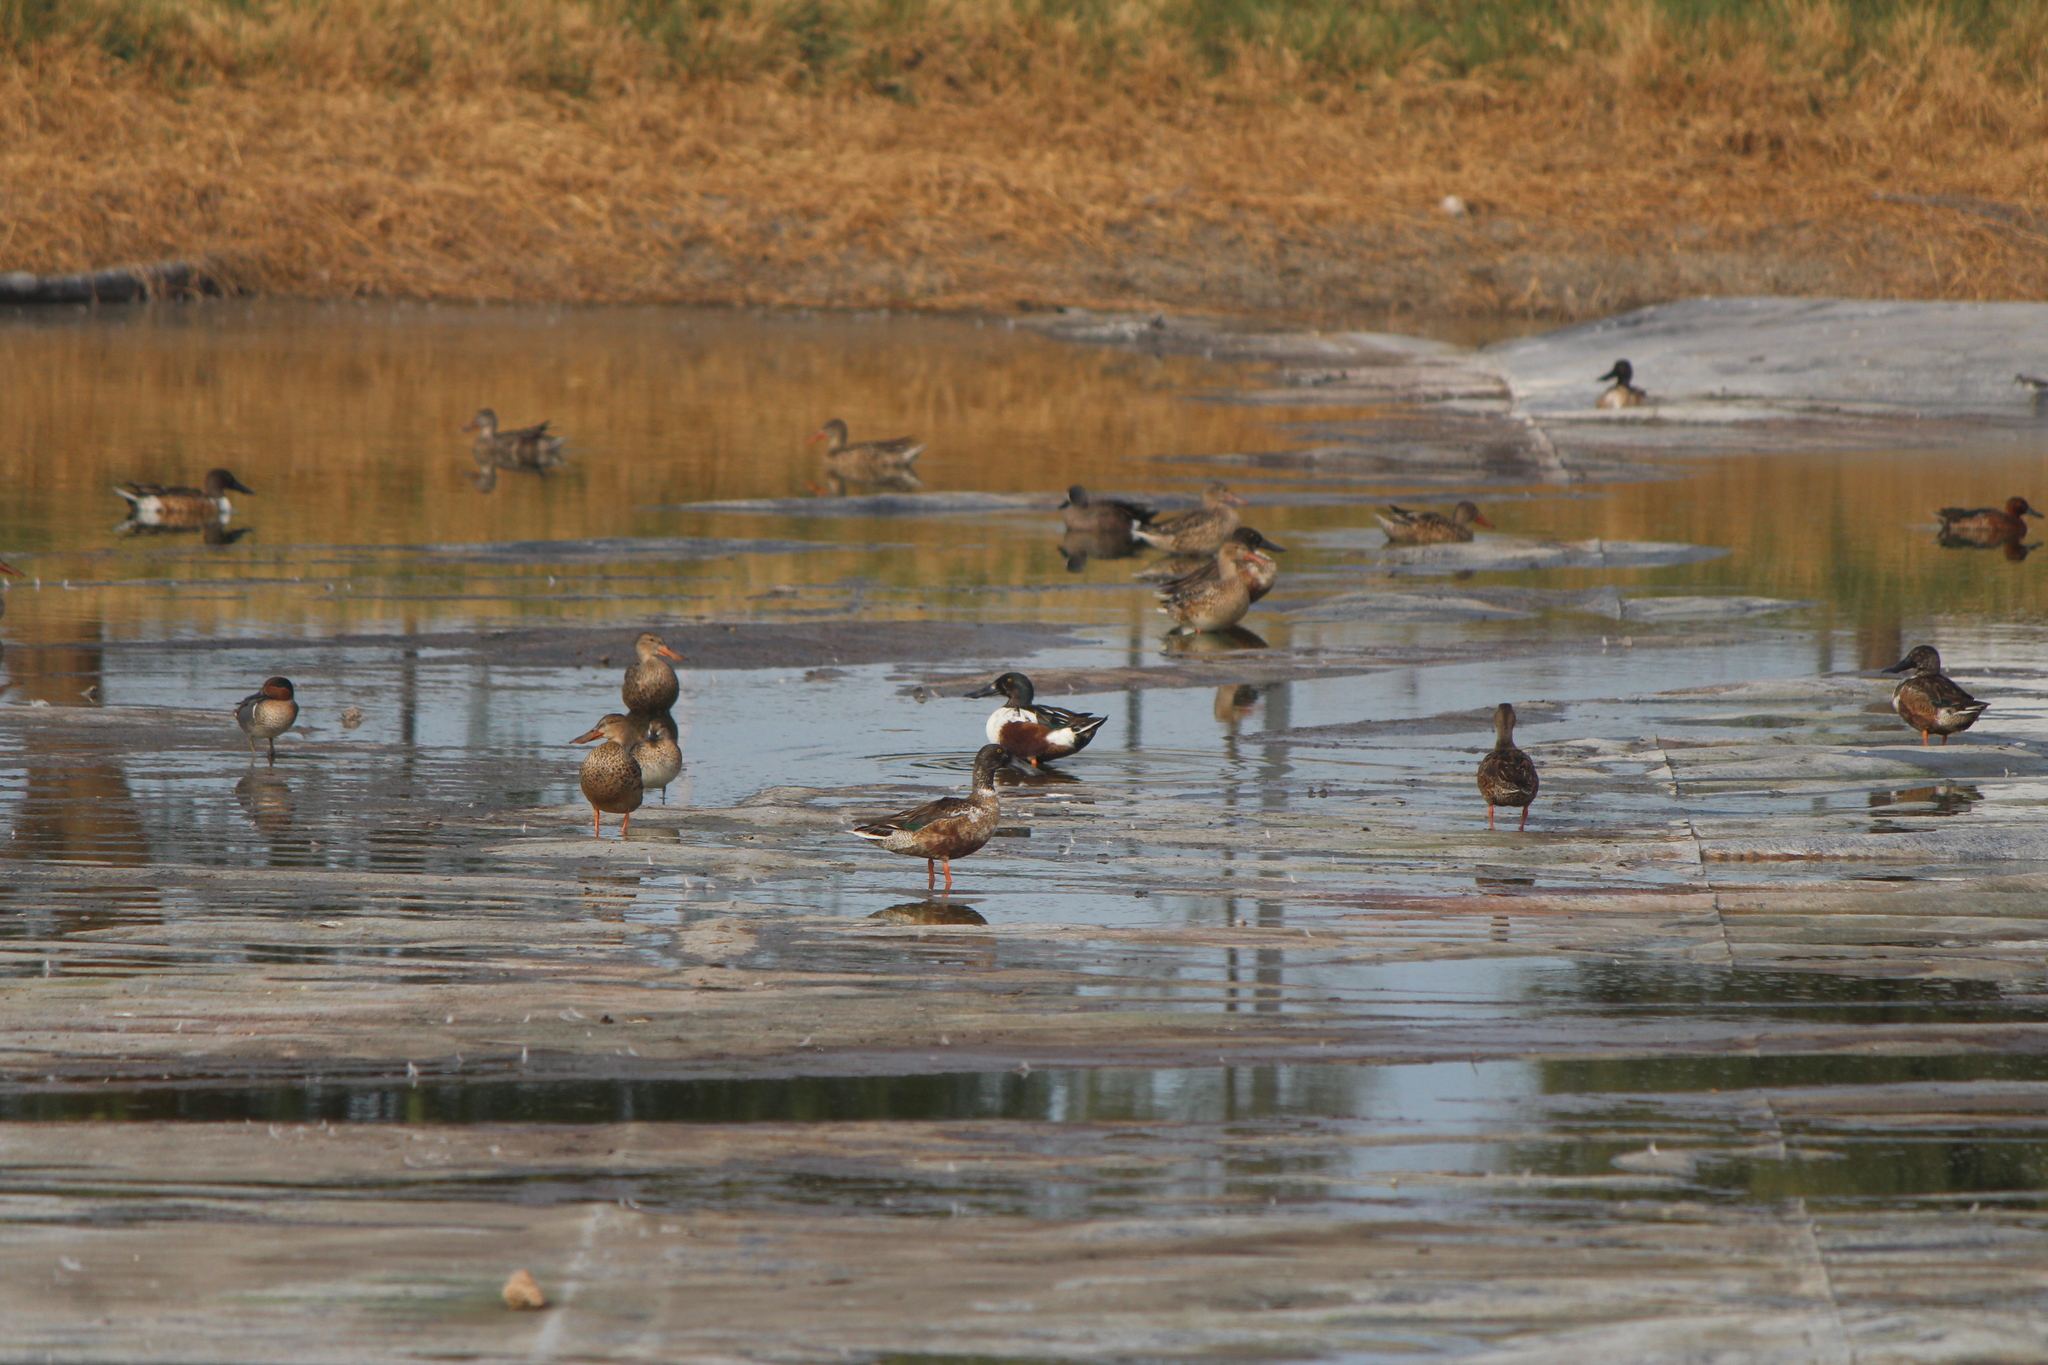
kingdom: Animalia
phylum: Chordata
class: Aves
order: Anseriformes
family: Anatidae
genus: Spatula
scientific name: Spatula clypeata
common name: Northern shoveler
